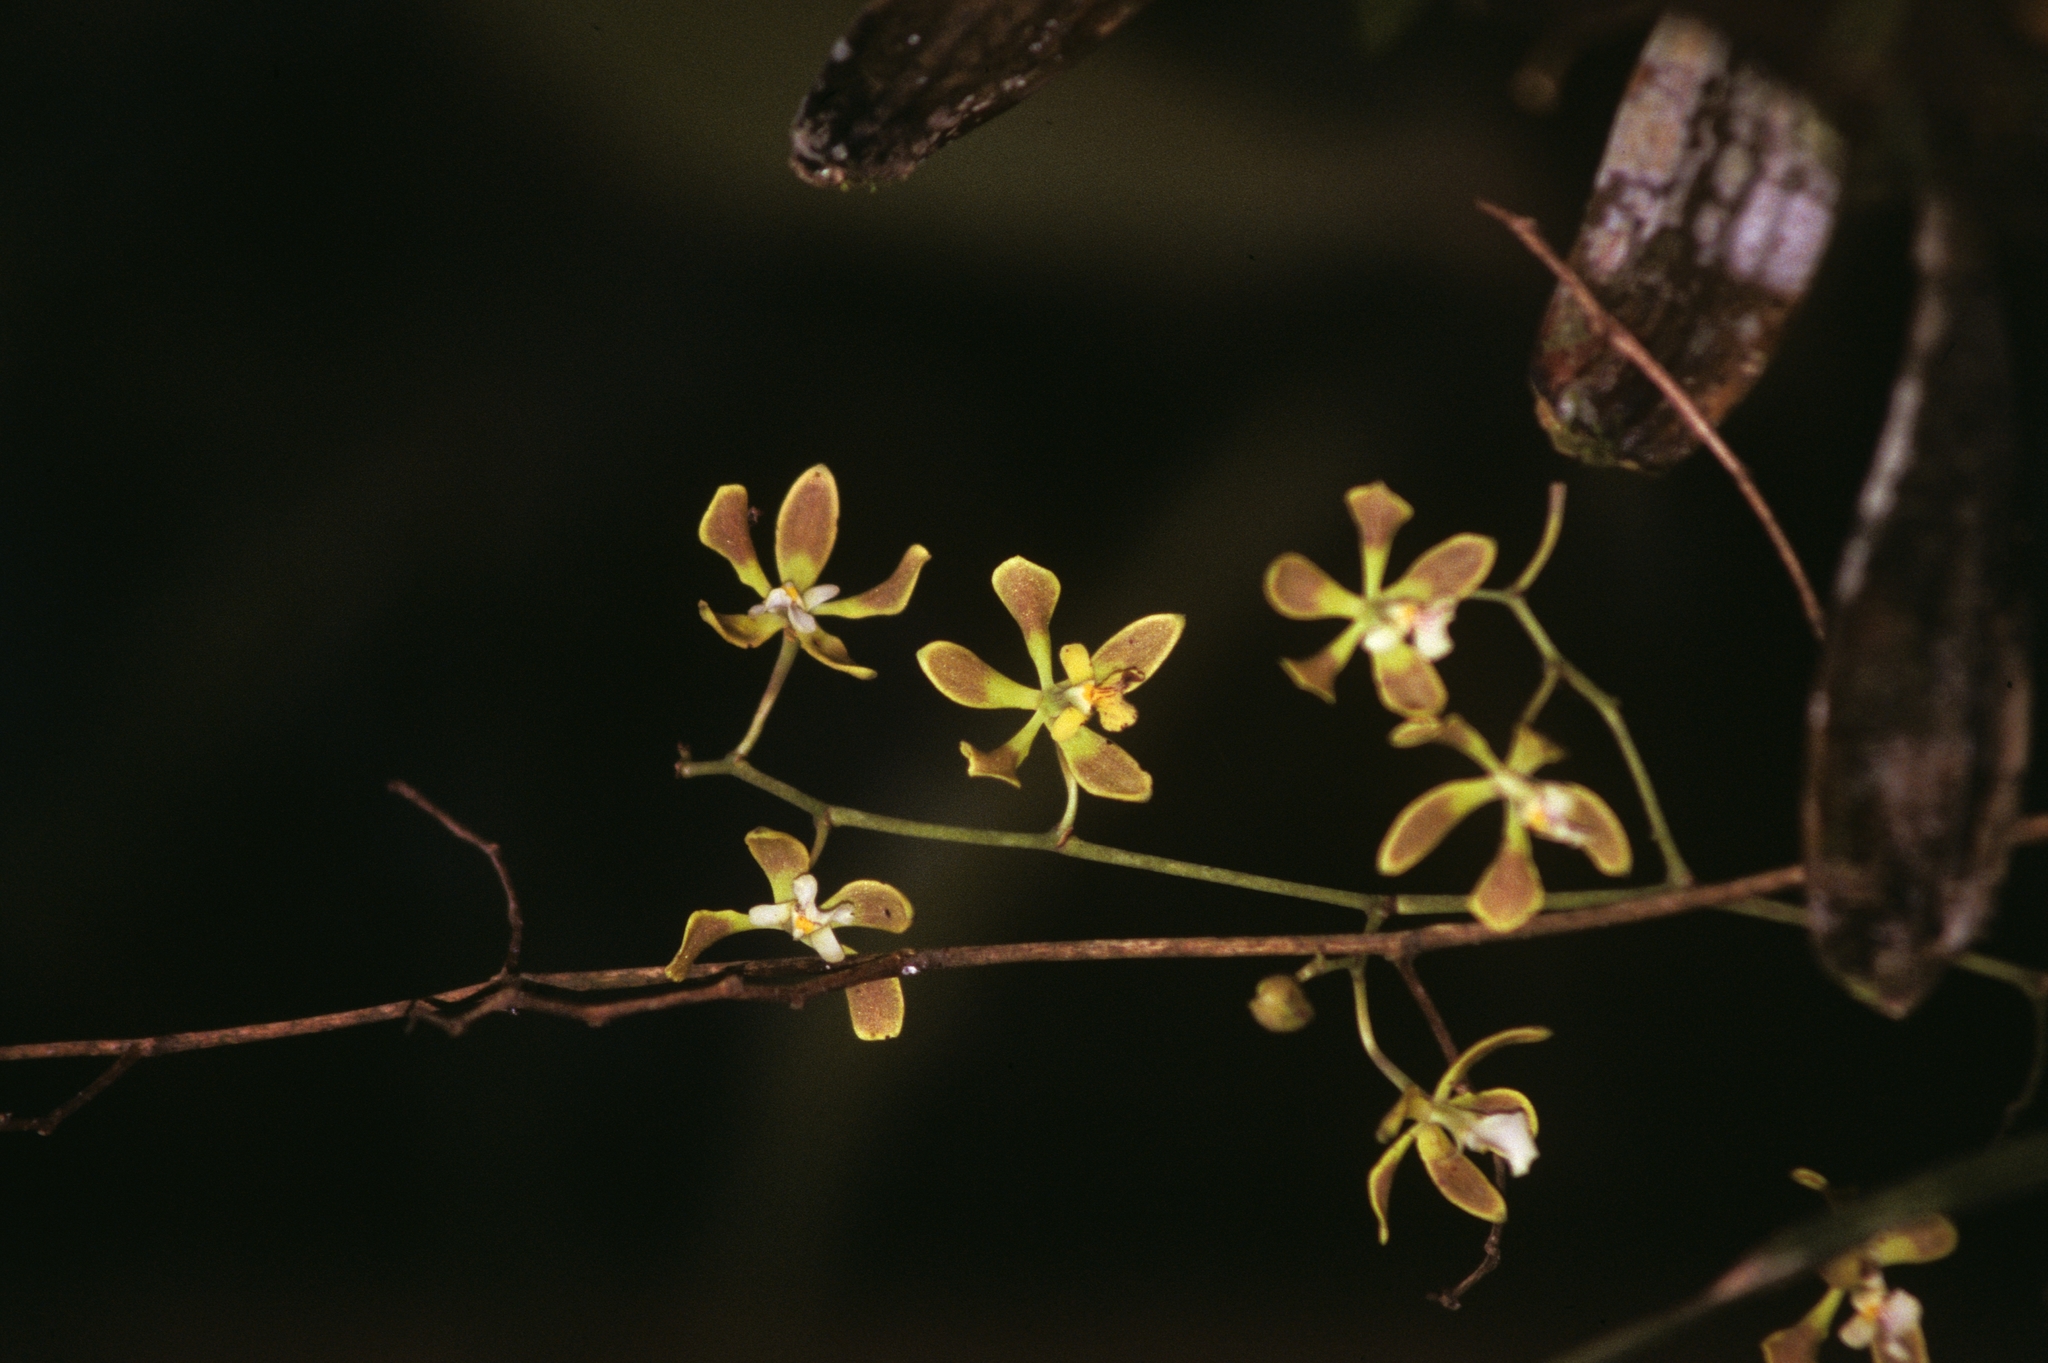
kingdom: Plantae
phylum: Tracheophyta
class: Liliopsida
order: Asparagales
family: Orchidaceae
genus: Encyclia
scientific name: Encyclia oncidioides
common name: Heavyfruit butterfly orchid
